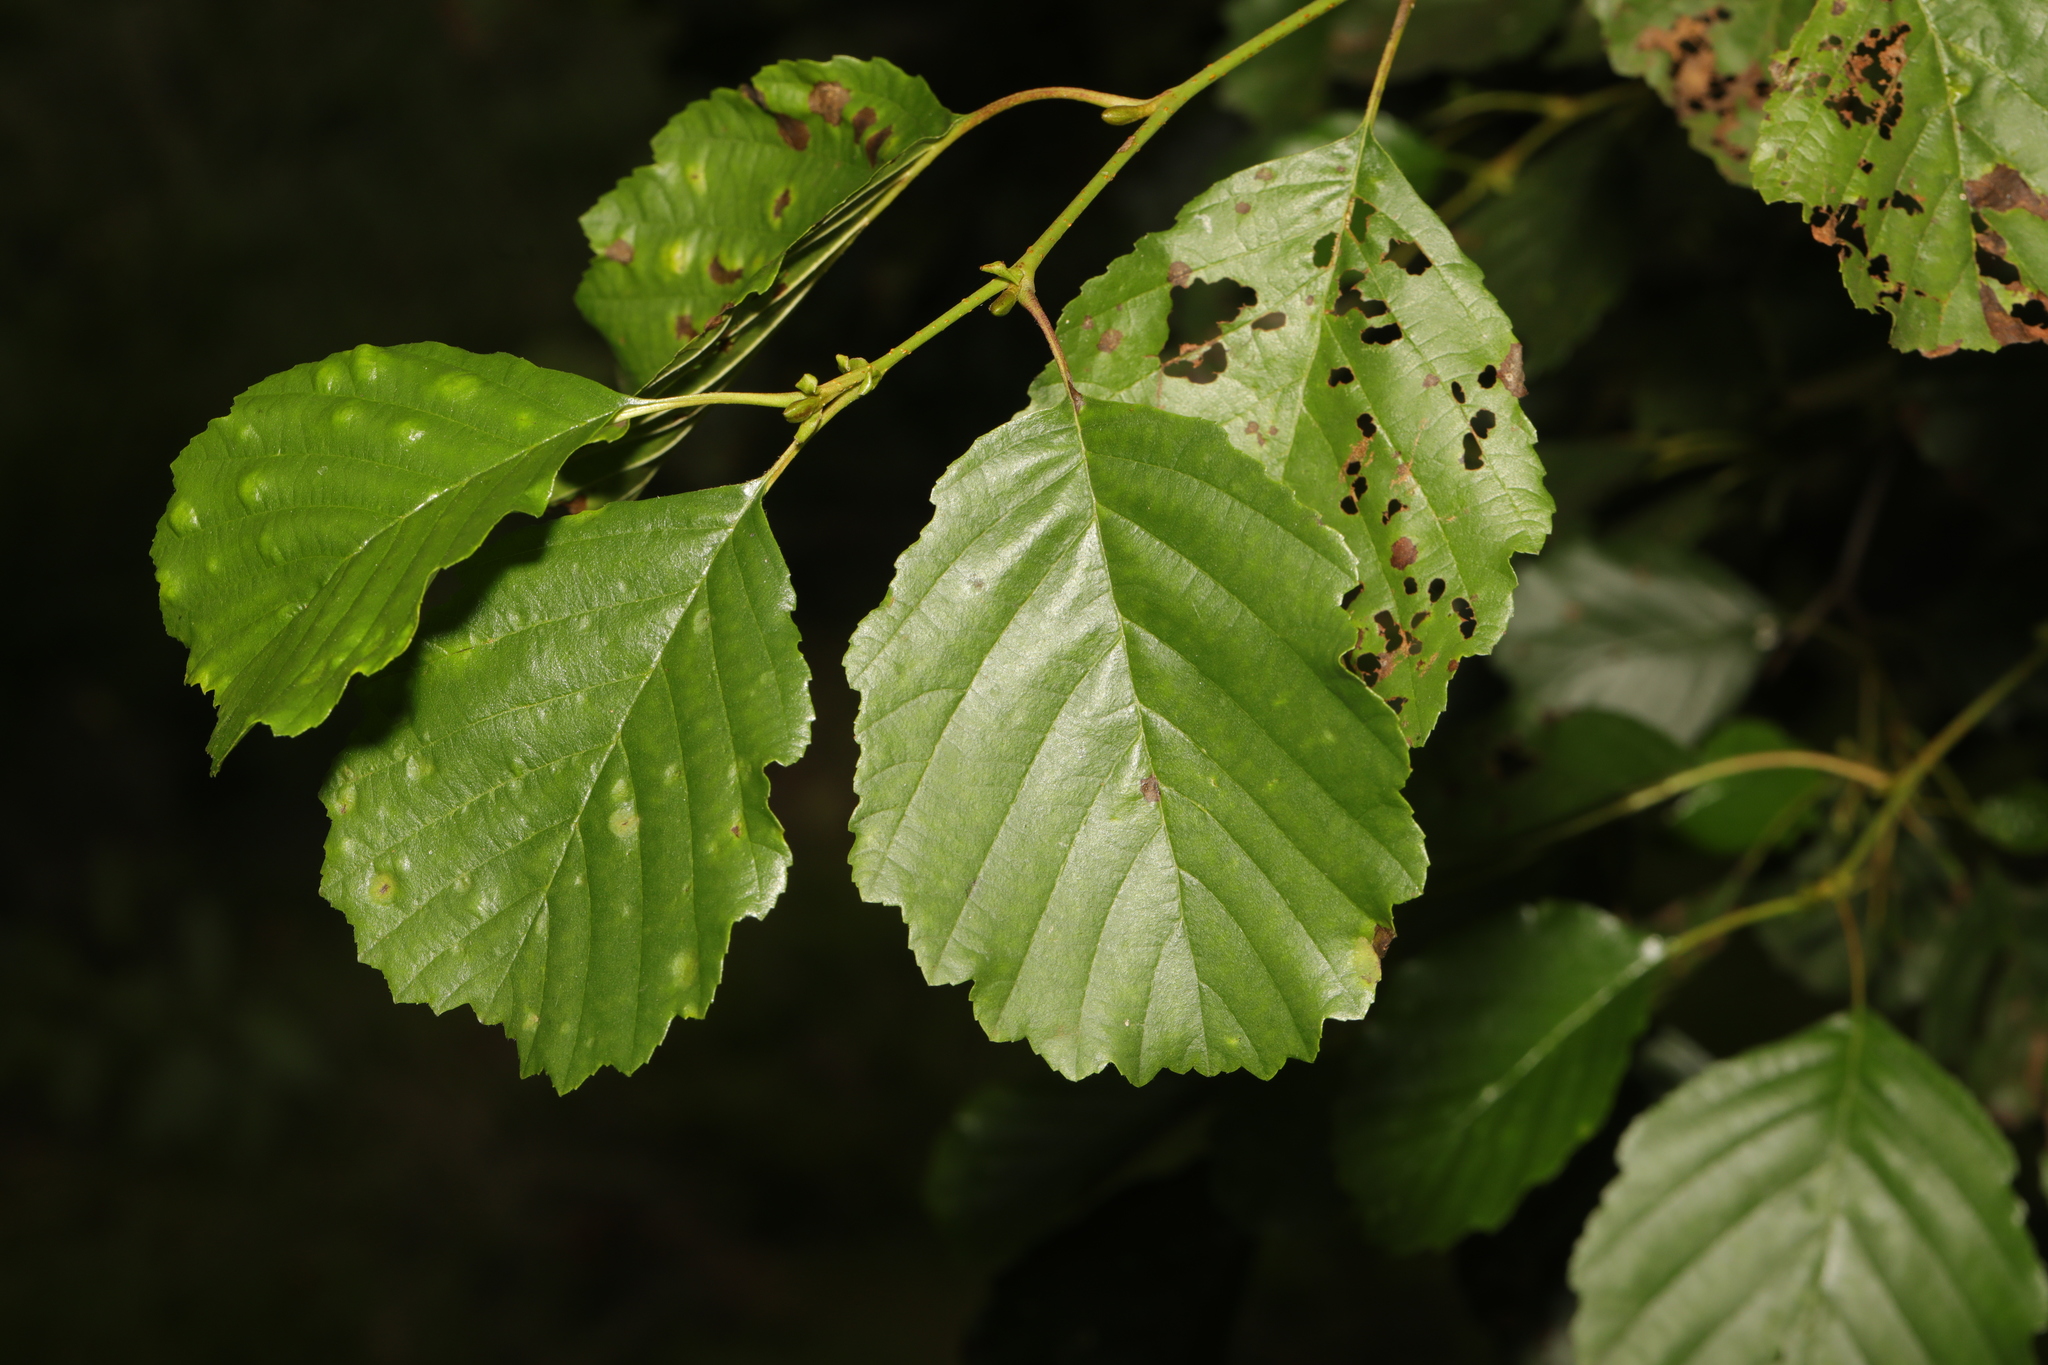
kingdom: Plantae
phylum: Tracheophyta
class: Magnoliopsida
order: Fagales
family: Betulaceae
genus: Alnus
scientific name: Alnus glutinosa
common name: Black alder
